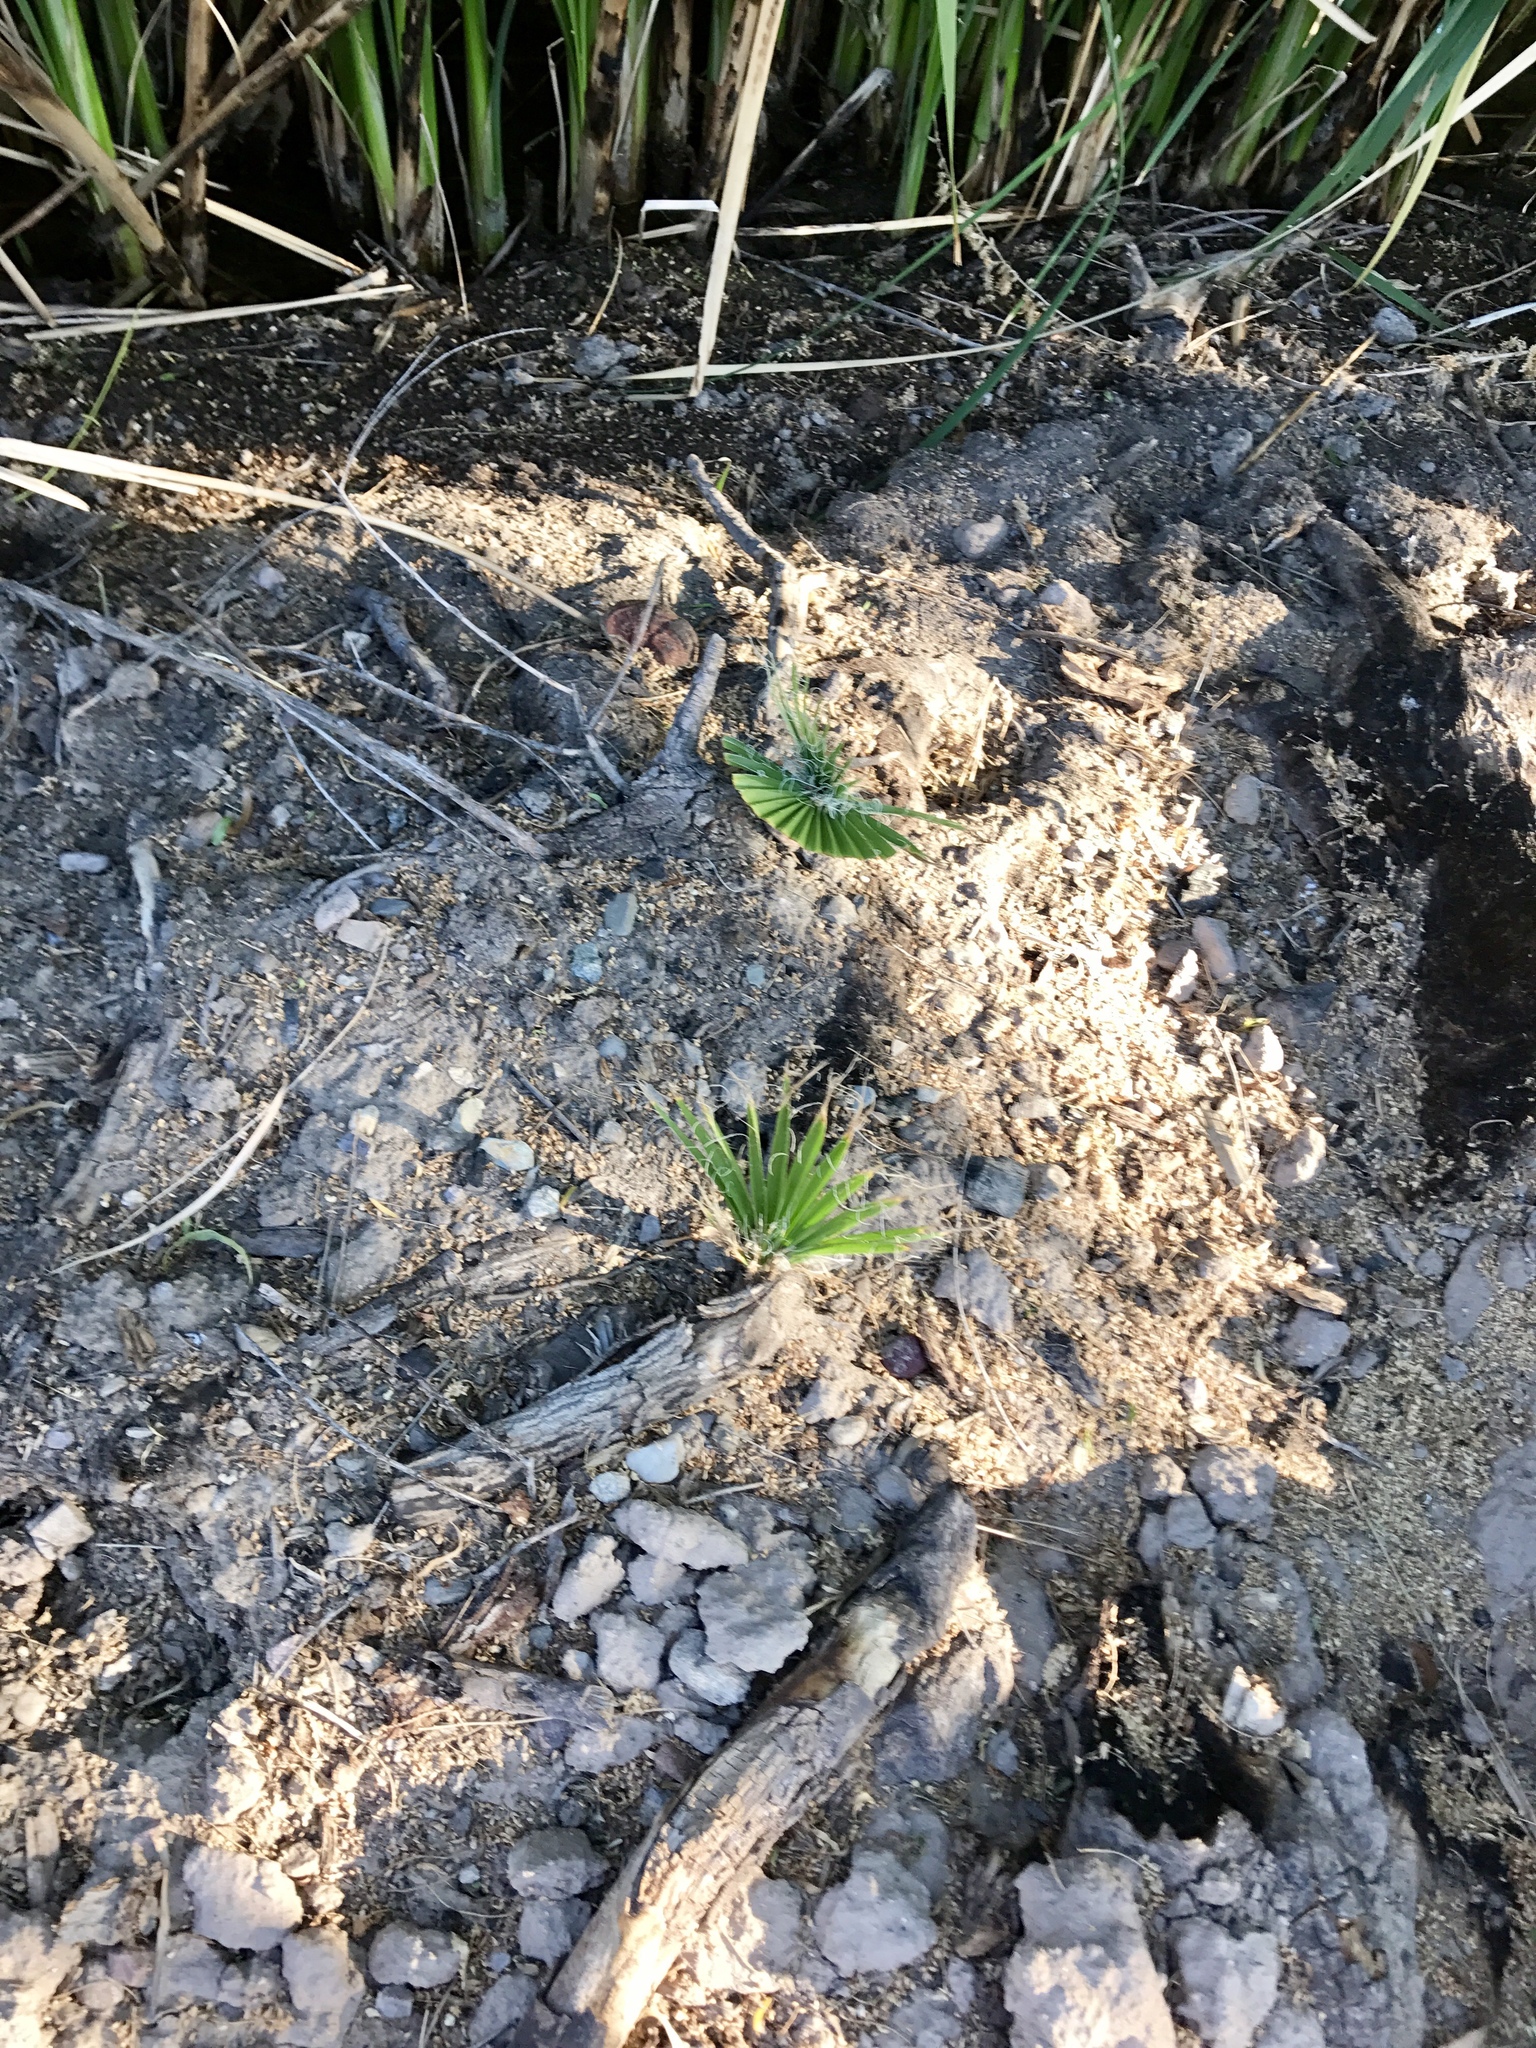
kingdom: Plantae
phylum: Tracheophyta
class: Liliopsida
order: Arecales
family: Arecaceae
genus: Washingtonia
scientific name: Washingtonia filifera
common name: California fan palm
